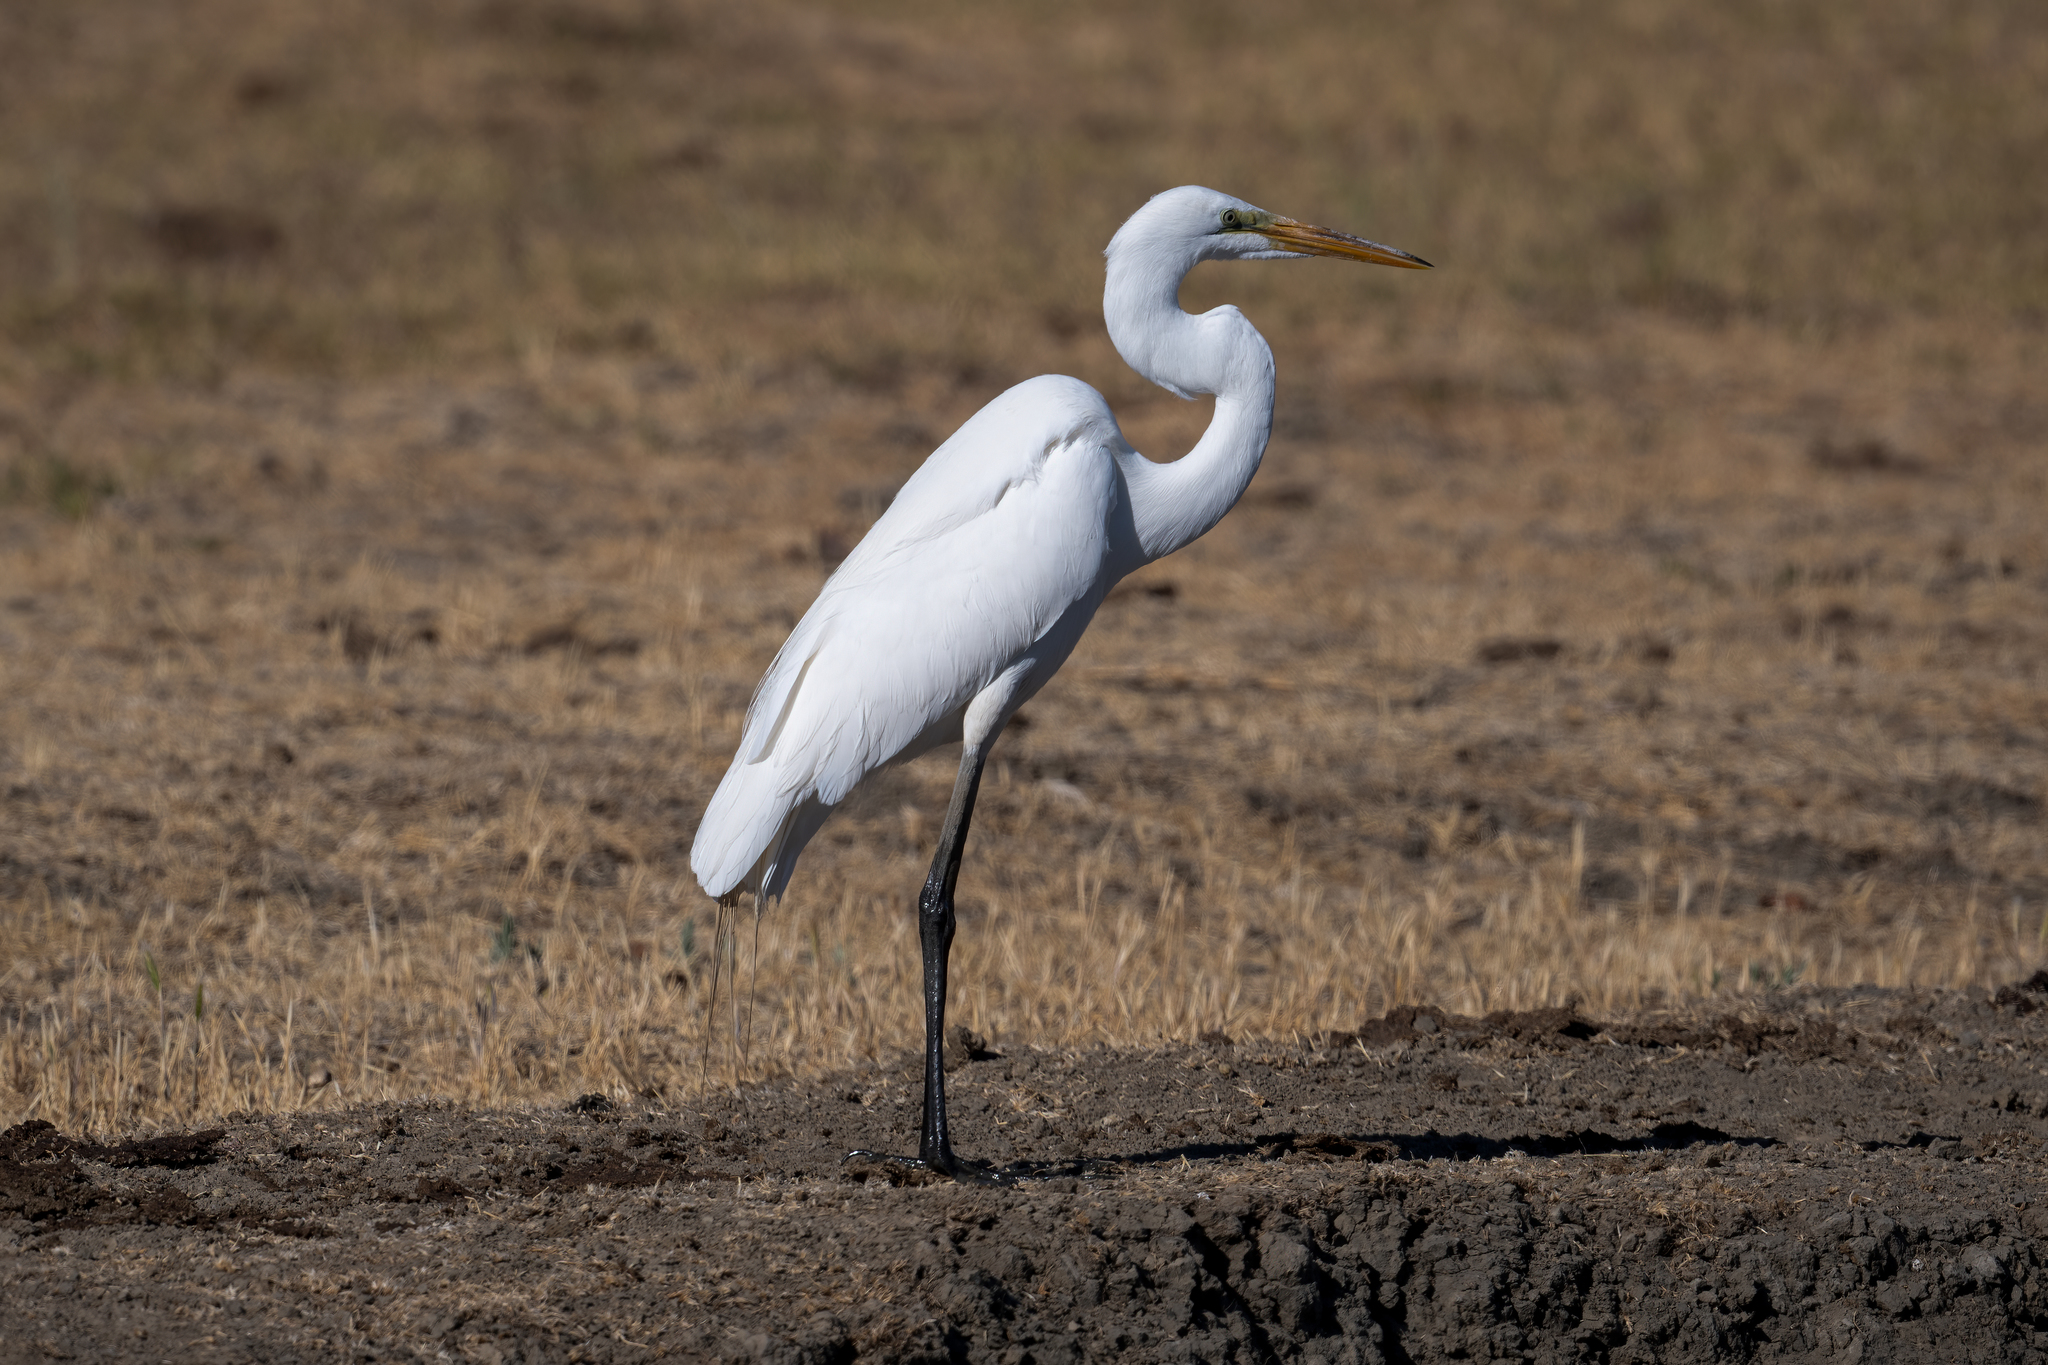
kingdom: Animalia
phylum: Chordata
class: Aves
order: Pelecaniformes
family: Ardeidae
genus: Ardea
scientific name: Ardea alba
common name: Great egret
